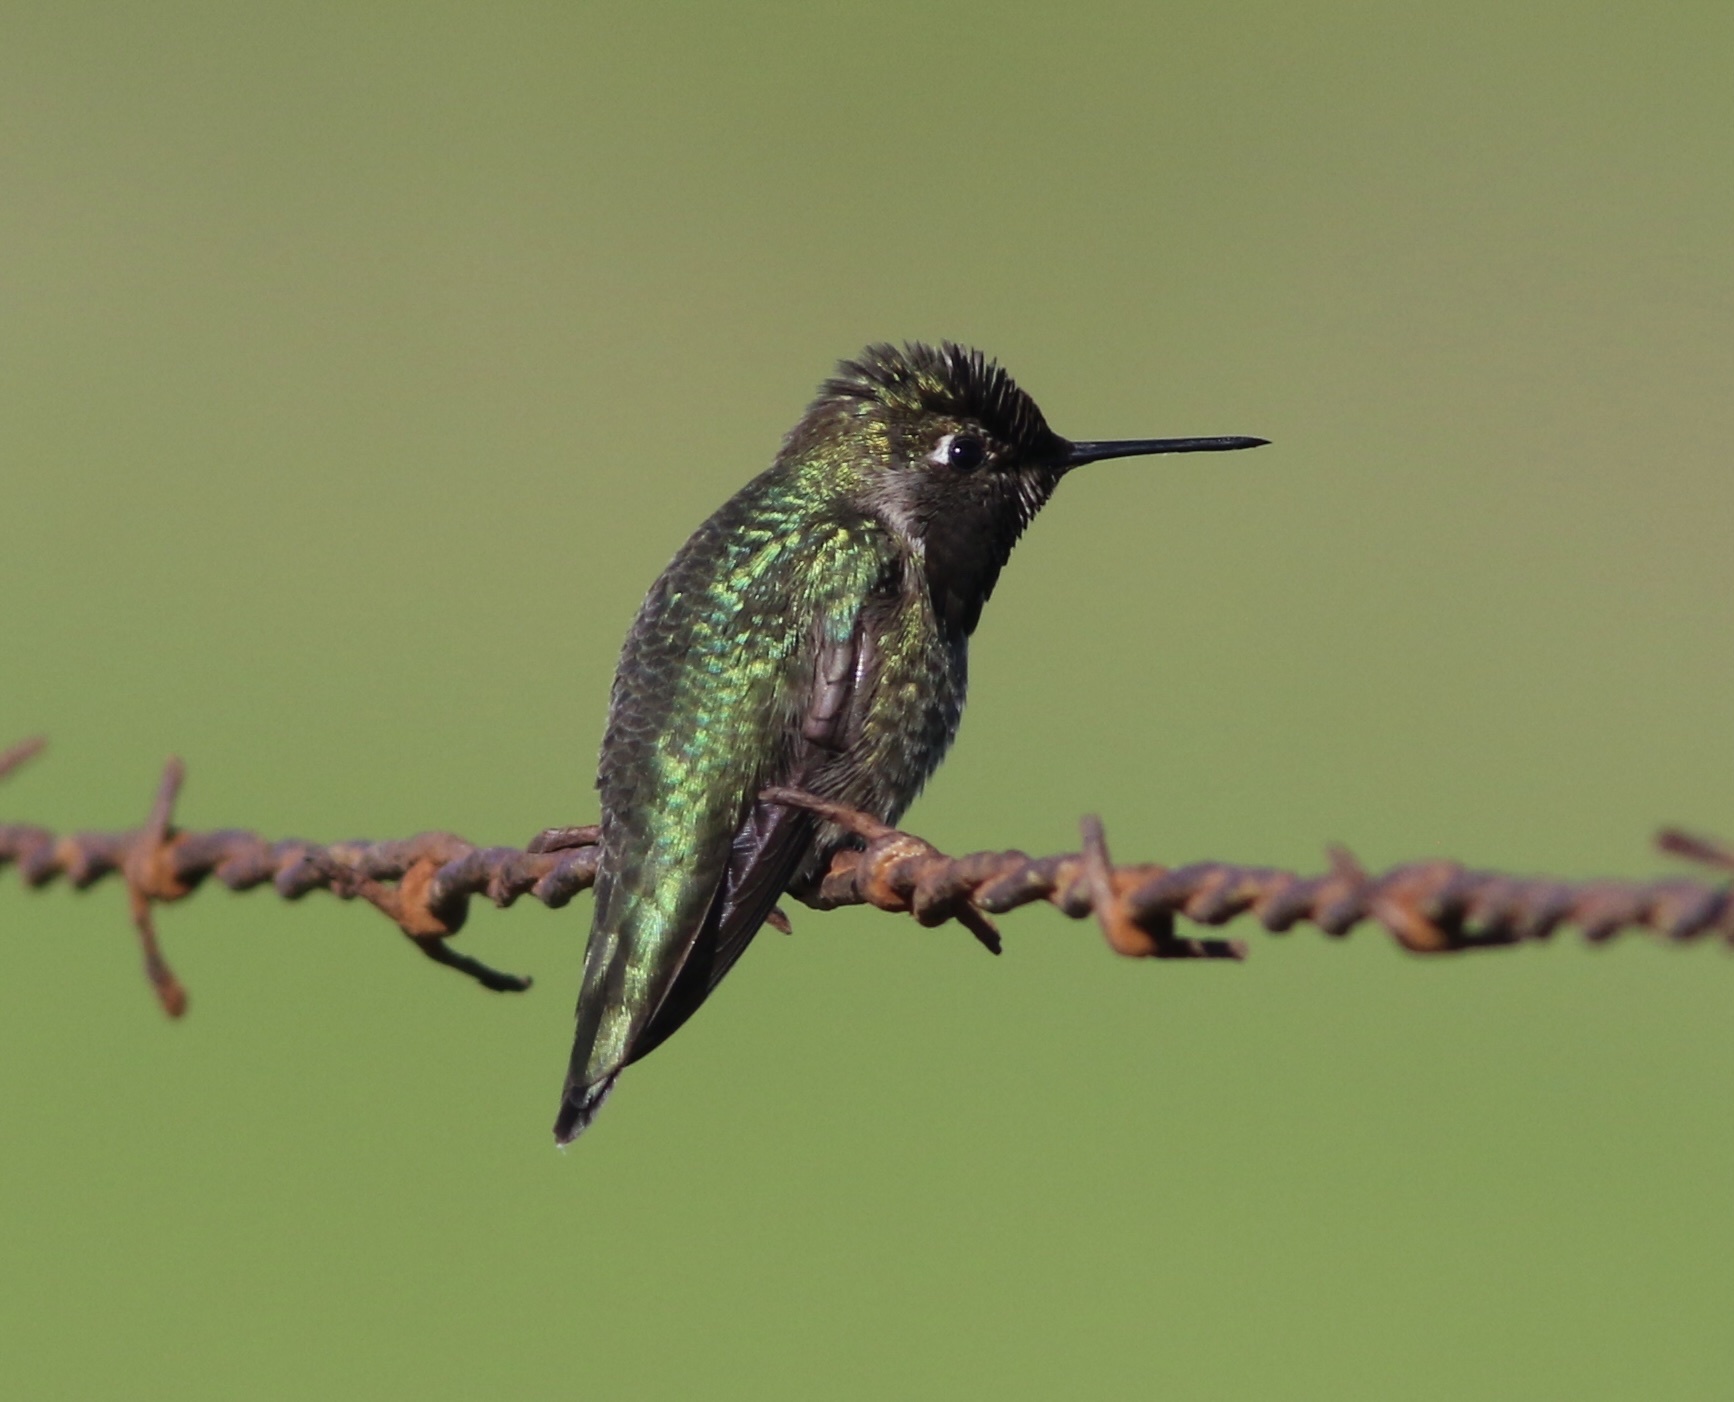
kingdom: Animalia
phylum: Chordata
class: Aves
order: Apodiformes
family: Trochilidae
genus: Calypte
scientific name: Calypte anna
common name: Anna's hummingbird
